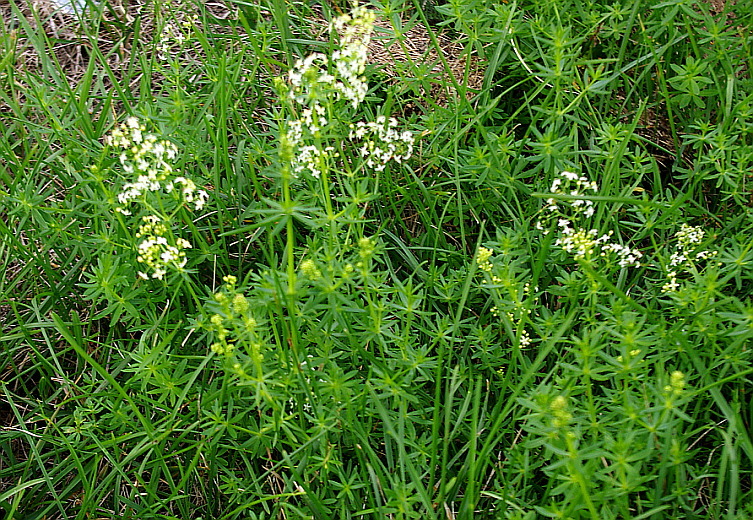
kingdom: Plantae
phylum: Tracheophyta
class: Magnoliopsida
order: Gentianales
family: Rubiaceae
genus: Galium
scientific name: Galium mollugo
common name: Hedge bedstraw
